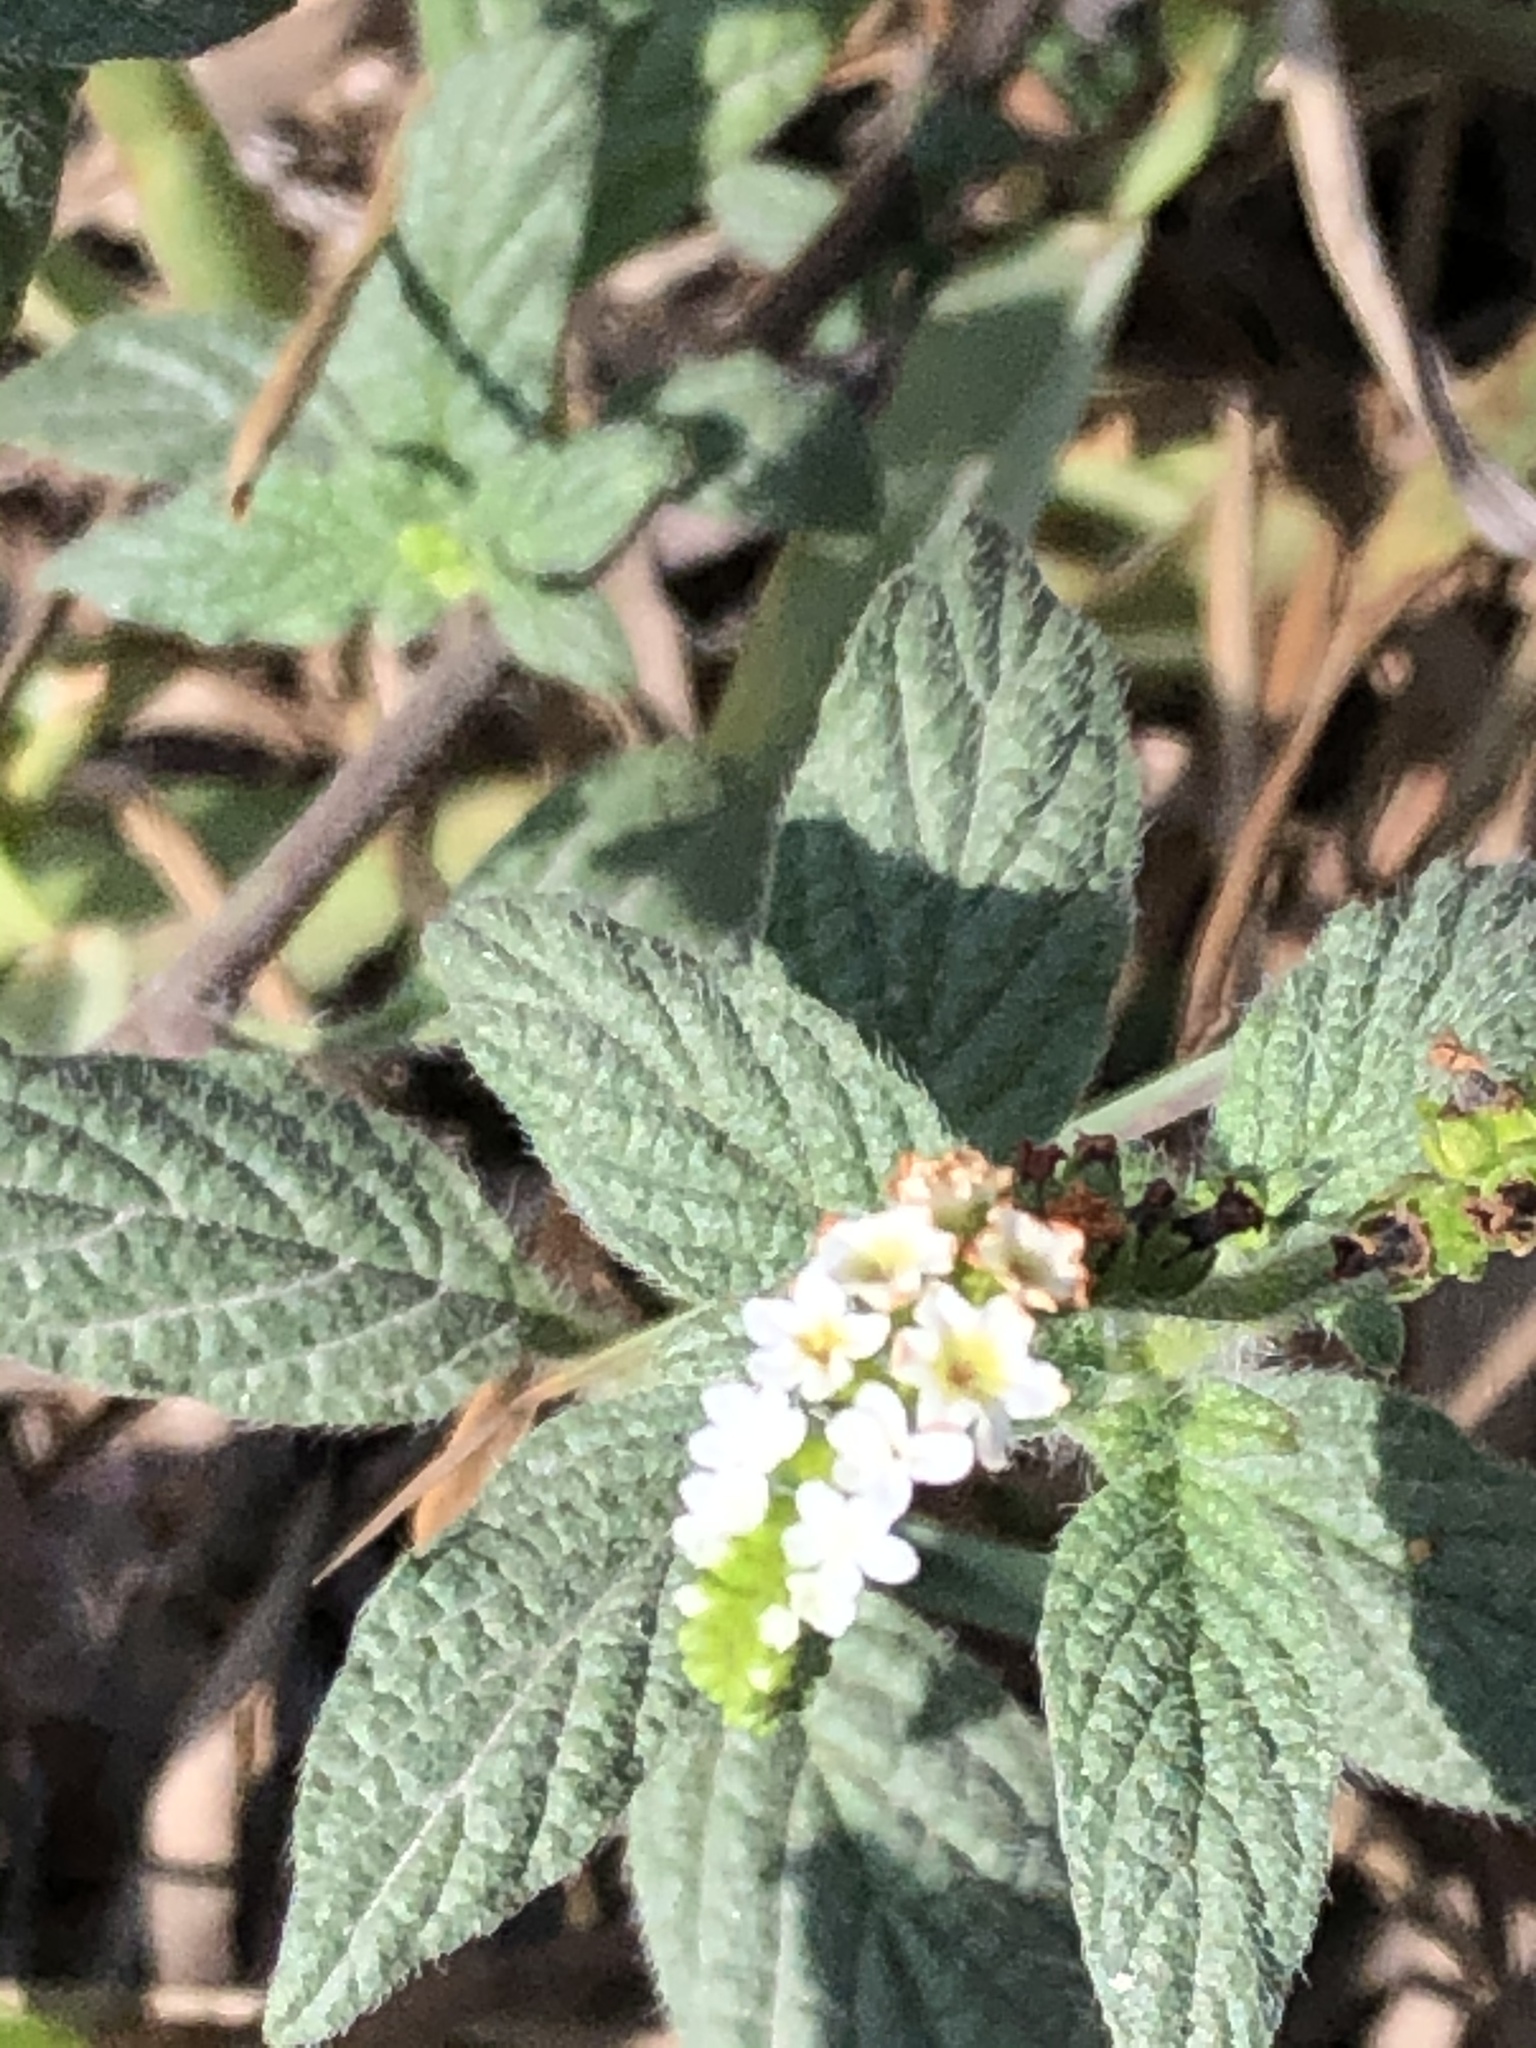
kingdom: Plantae
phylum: Tracheophyta
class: Magnoliopsida
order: Boraginales
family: Heliotropiaceae
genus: Heliotropium
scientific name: Heliotropium angiospermum
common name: Eye bright
